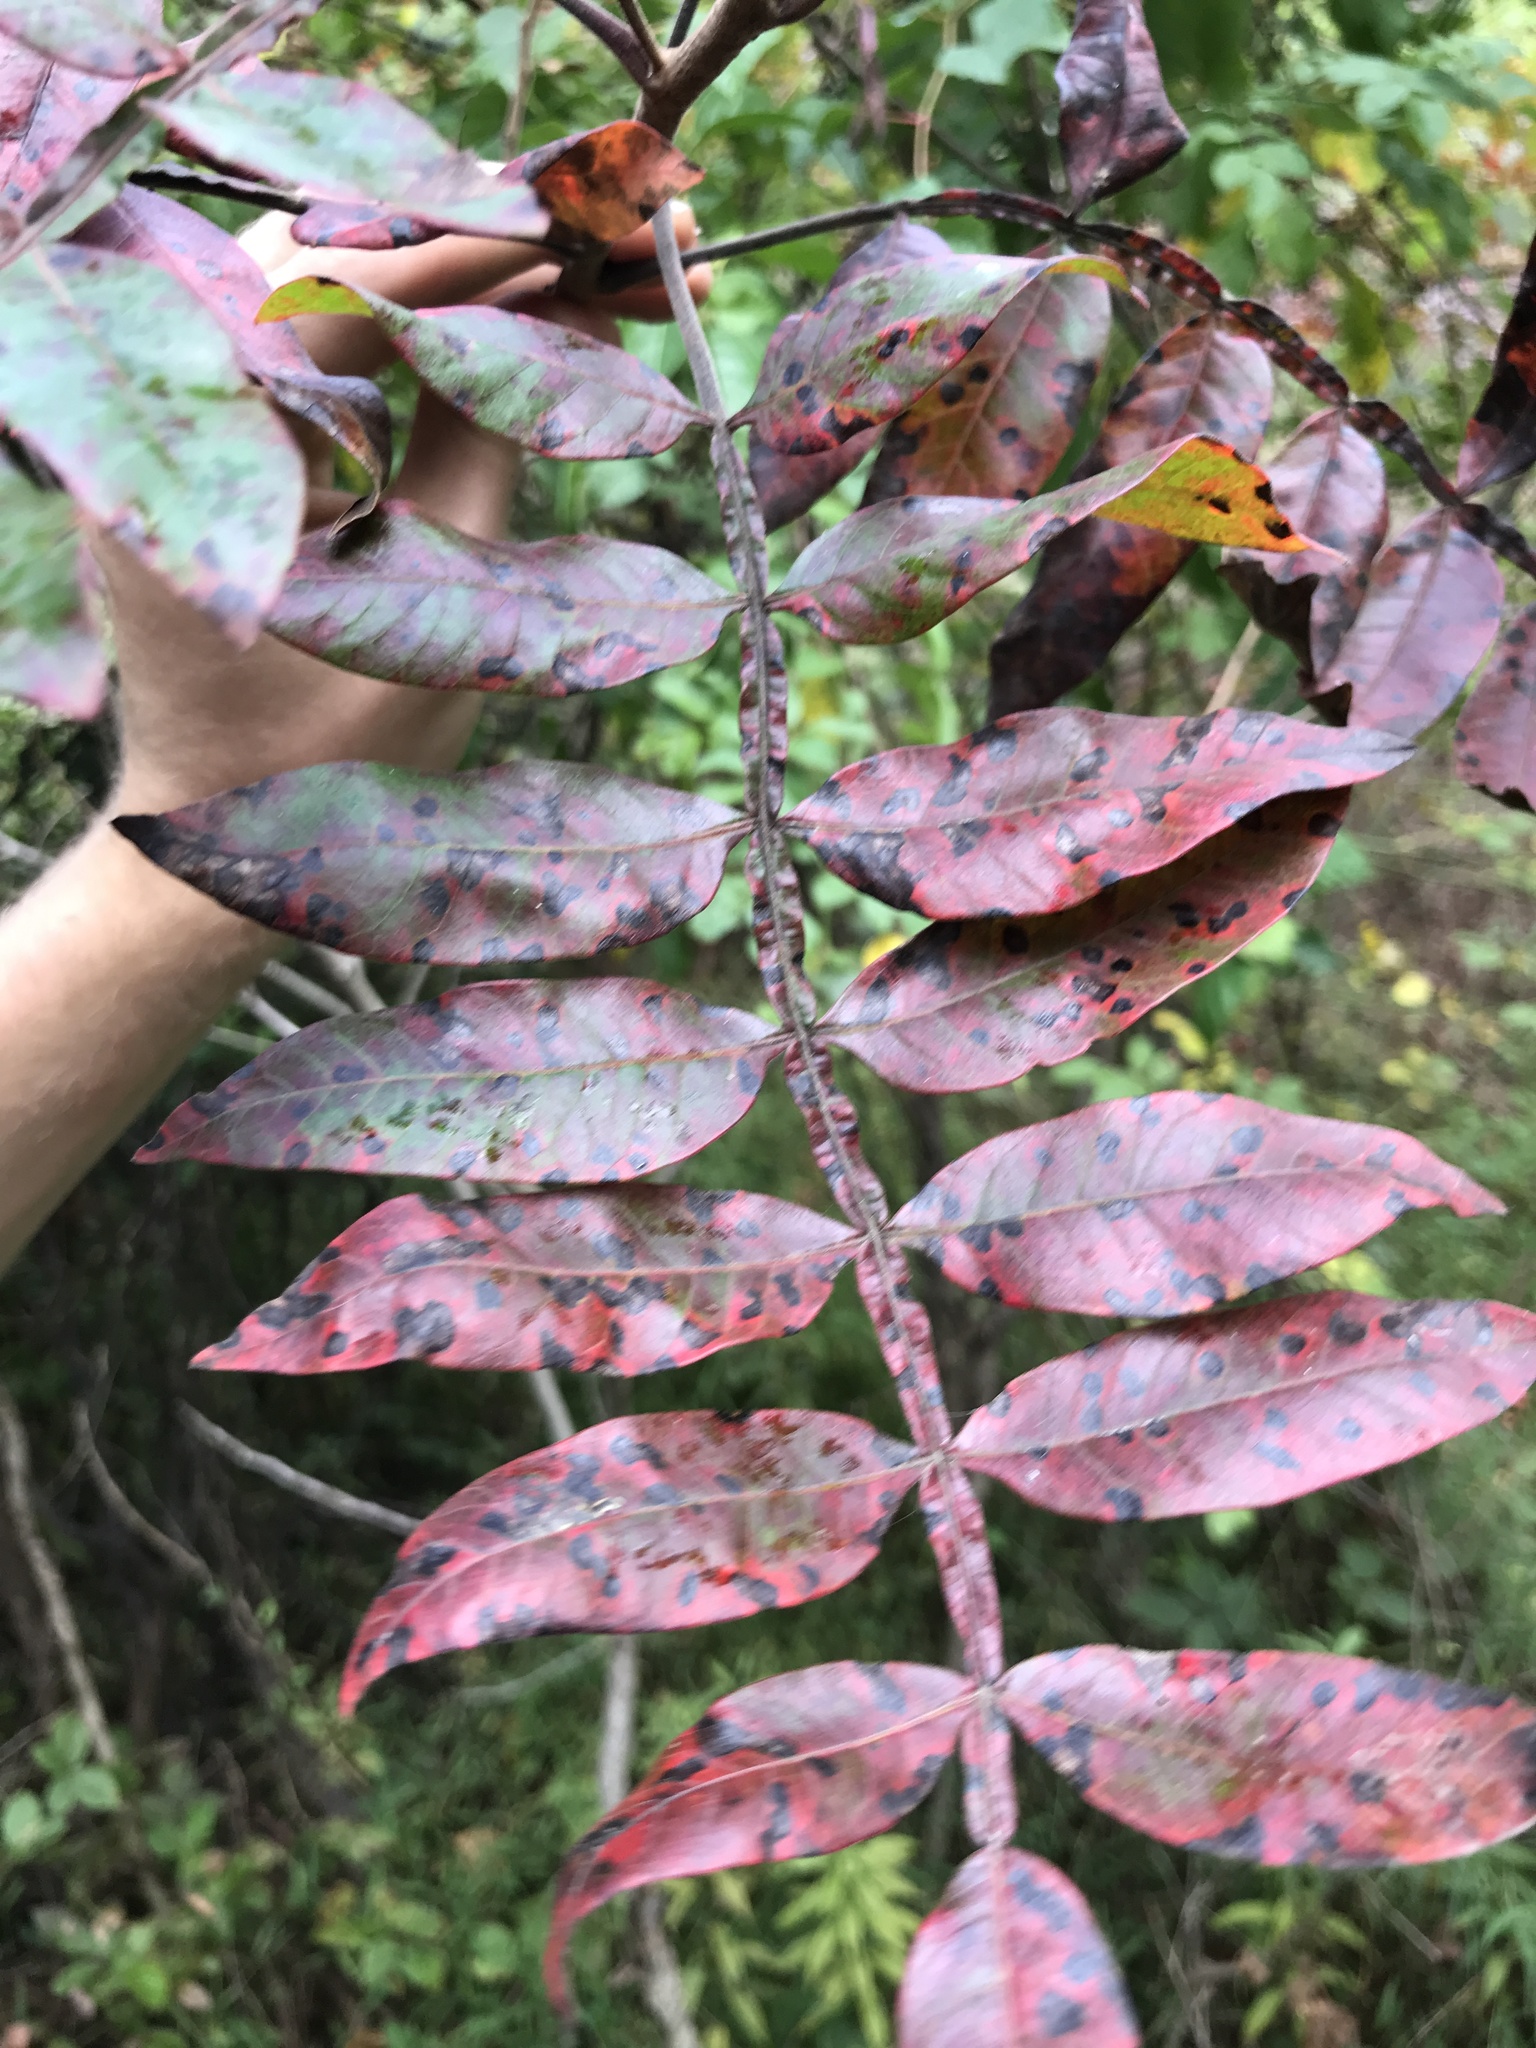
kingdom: Plantae
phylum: Tracheophyta
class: Magnoliopsida
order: Sapindales
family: Anacardiaceae
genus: Rhus
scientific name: Rhus copallina
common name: Shining sumac
